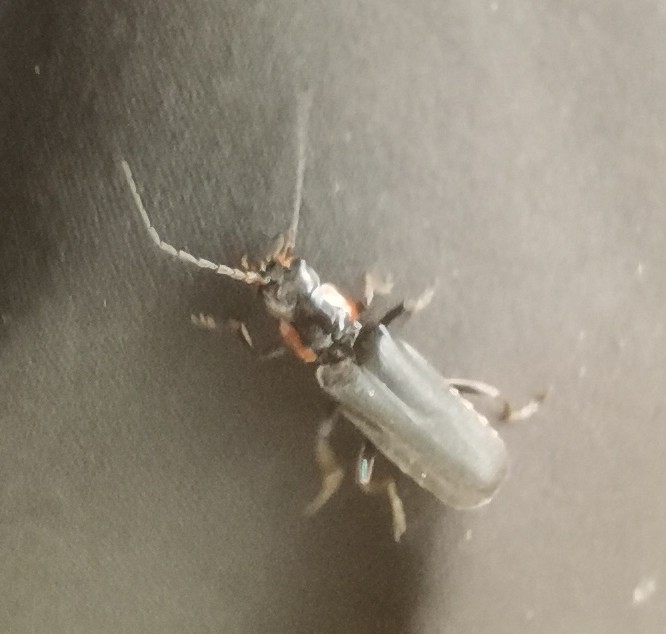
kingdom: Animalia
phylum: Arthropoda
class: Insecta
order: Coleoptera
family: Cantharidae
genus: Cantharis
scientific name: Cantharis obscura
